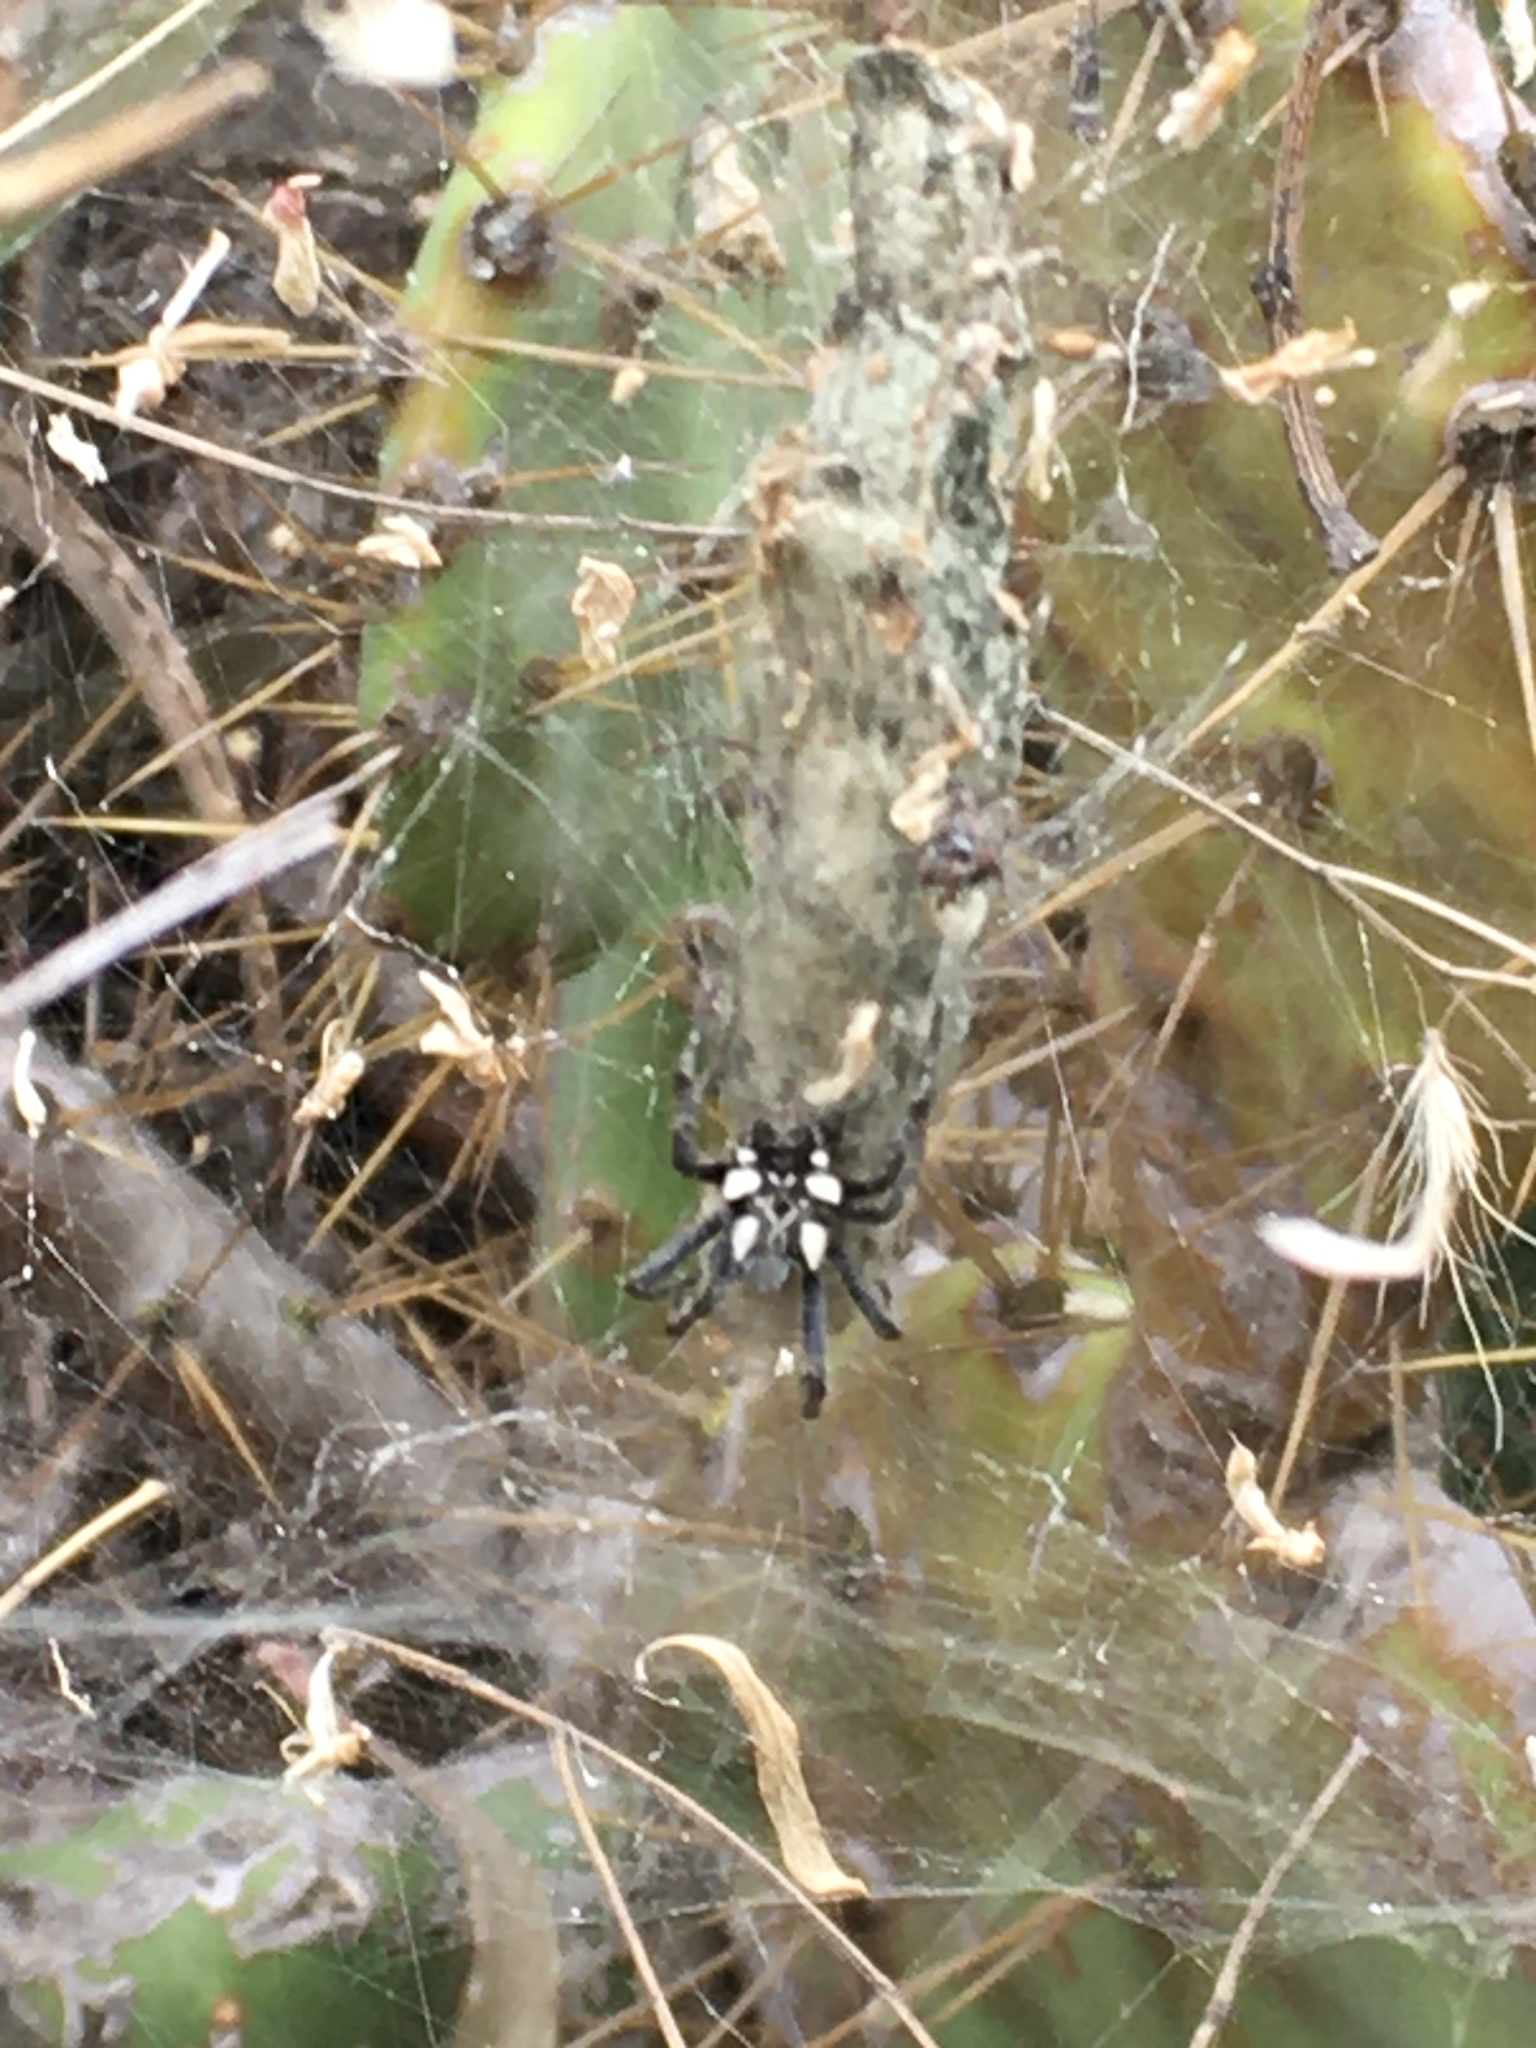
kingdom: Animalia
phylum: Arthropoda
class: Arachnida
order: Araneae
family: Araneidae
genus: Cyrtophora
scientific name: Cyrtophora citricola
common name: Orb weavers
